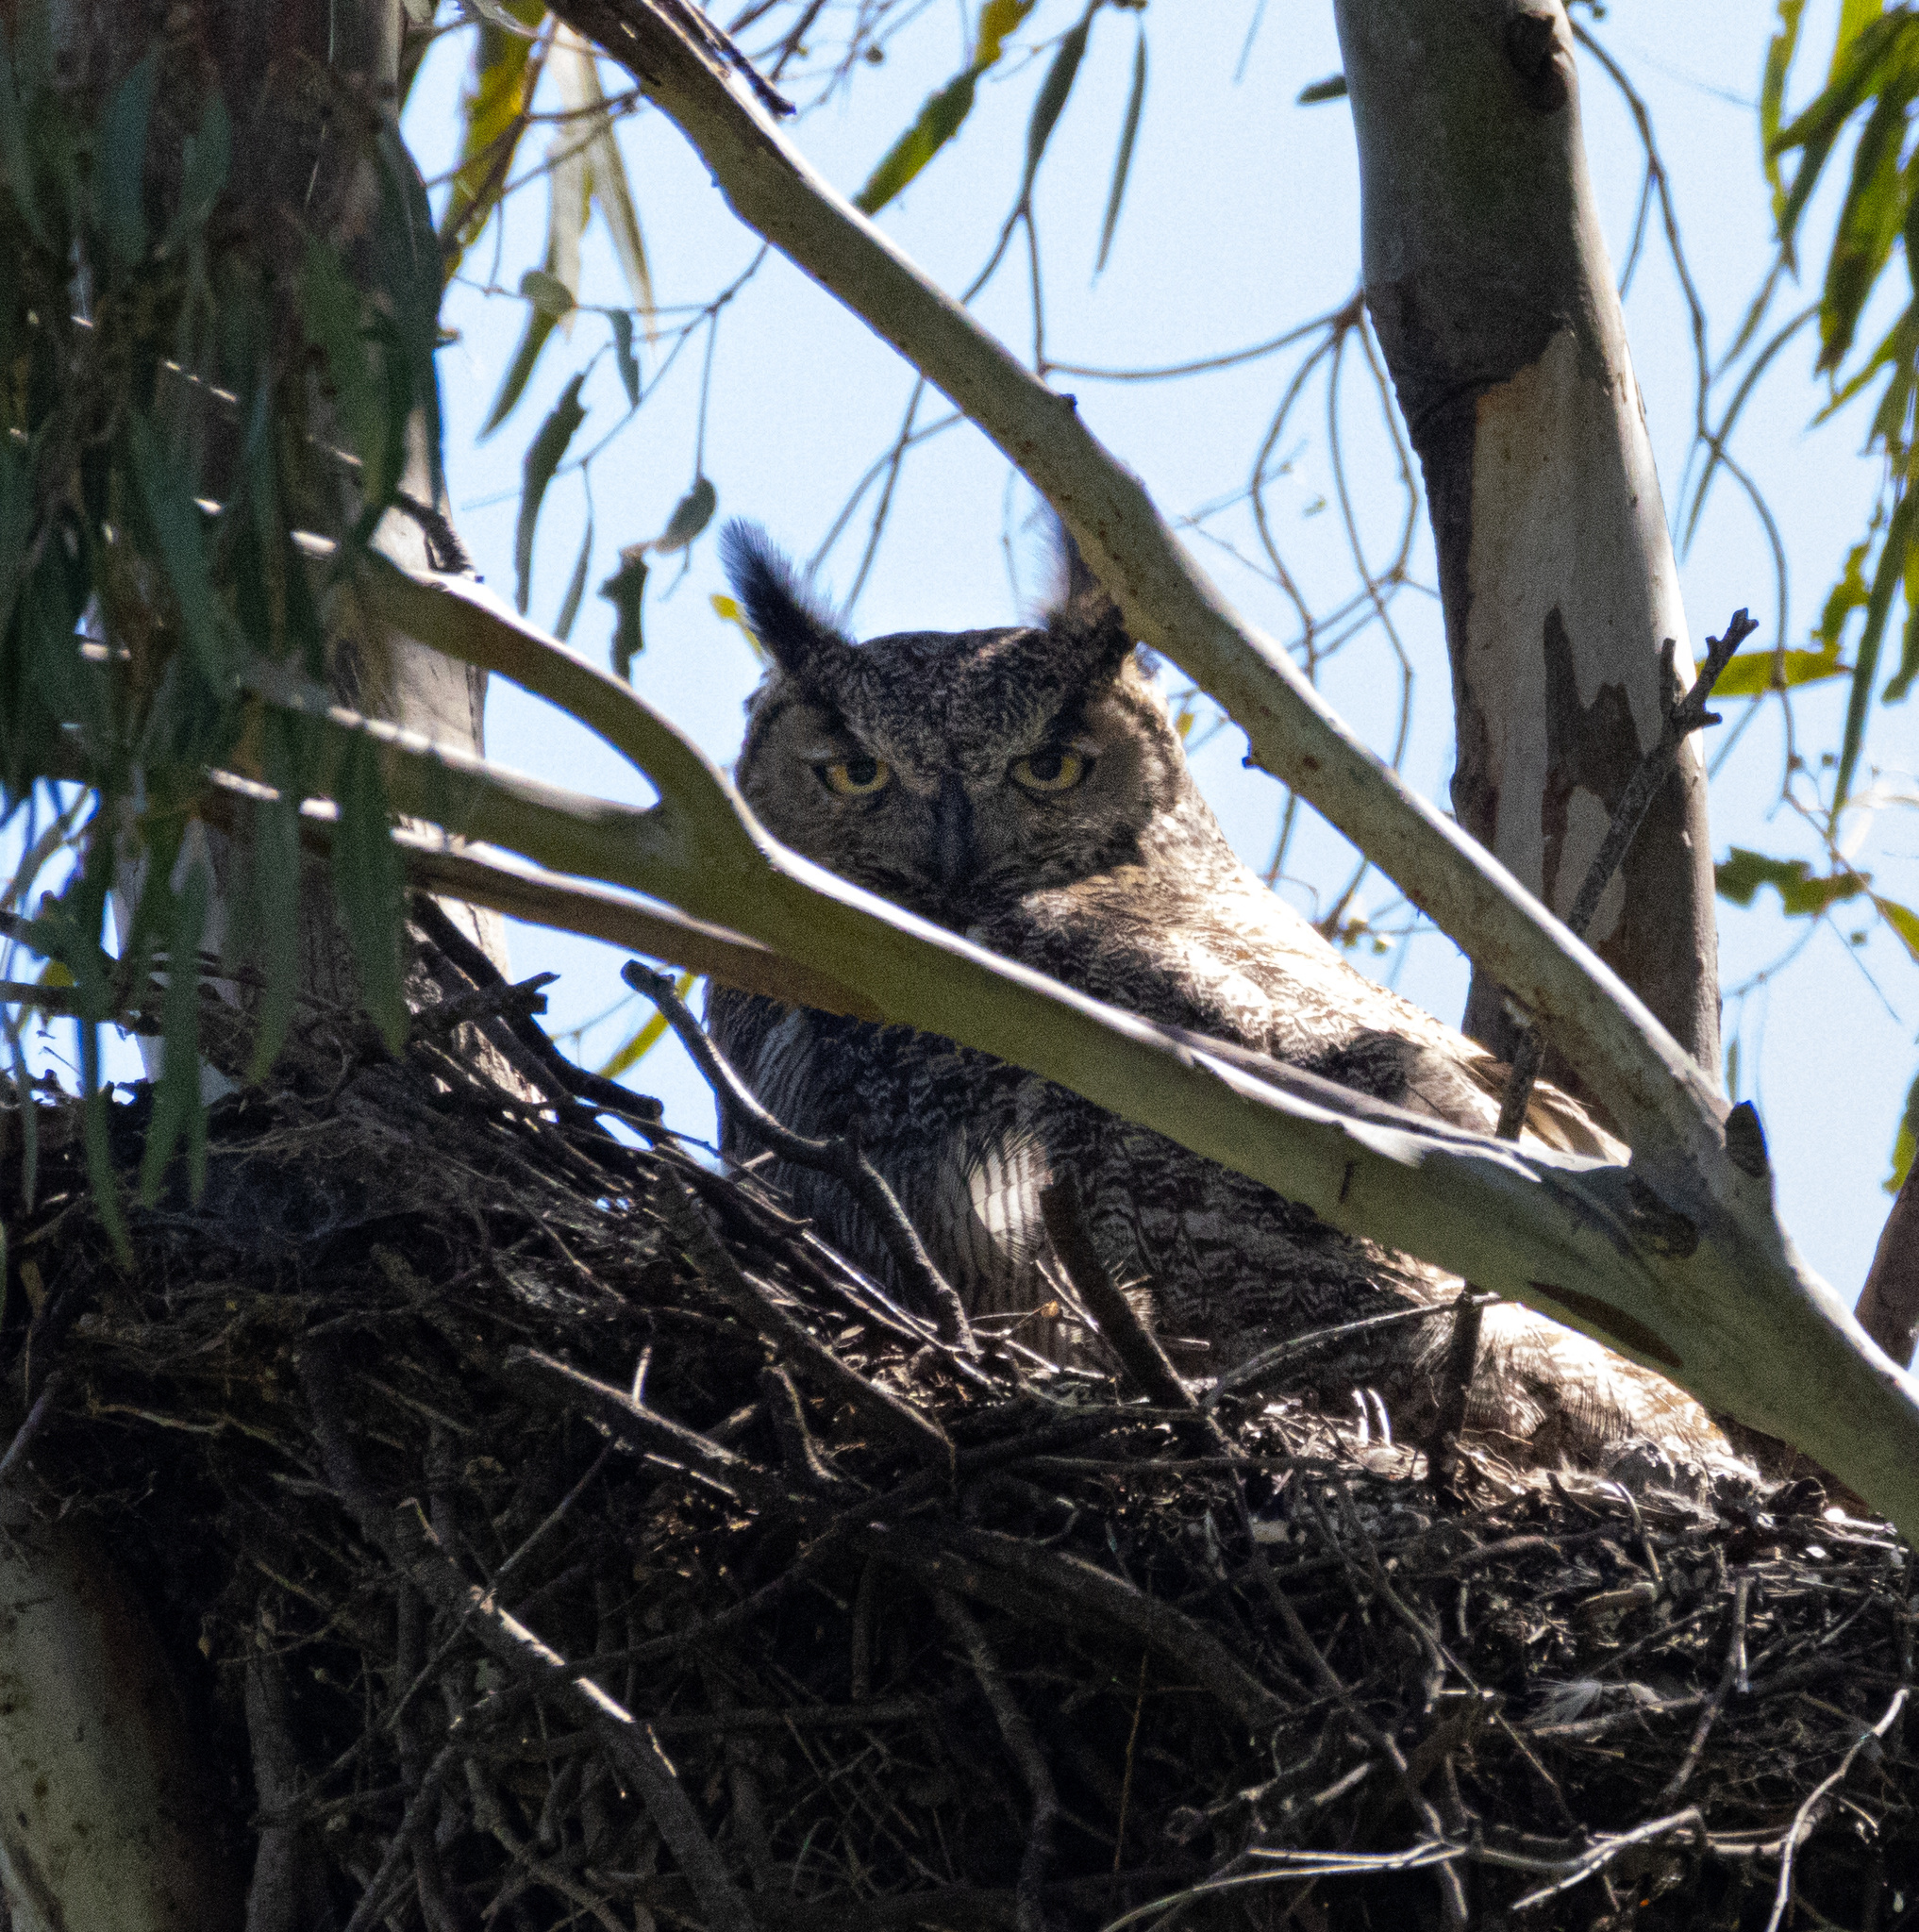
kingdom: Animalia
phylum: Chordata
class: Aves
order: Strigiformes
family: Strigidae
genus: Bubo
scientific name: Bubo virginianus
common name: Great horned owl
